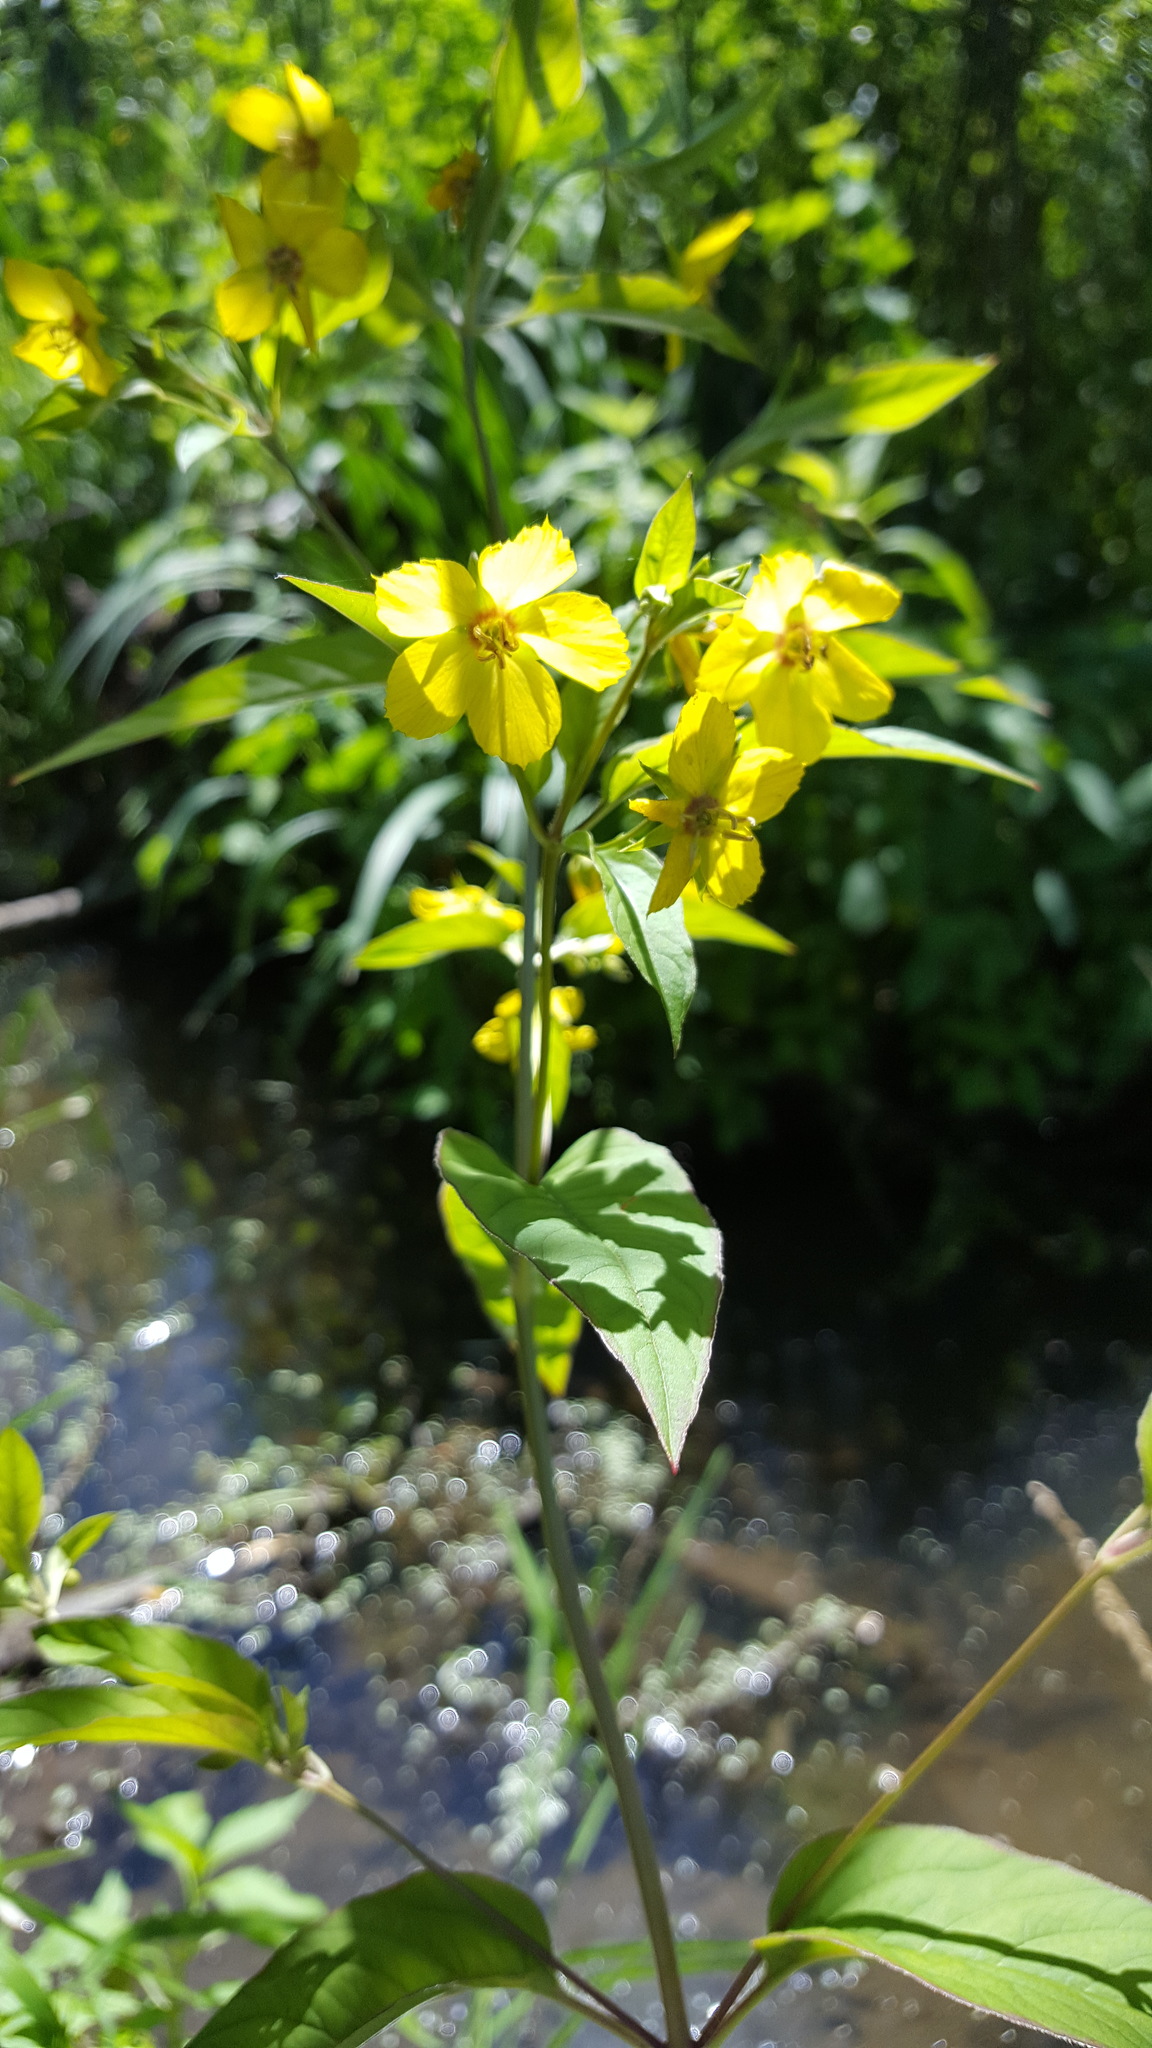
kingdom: Plantae
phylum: Tracheophyta
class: Magnoliopsida
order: Ericales
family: Primulaceae
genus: Lysimachia
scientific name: Lysimachia ciliata
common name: Fringed loosestrife
